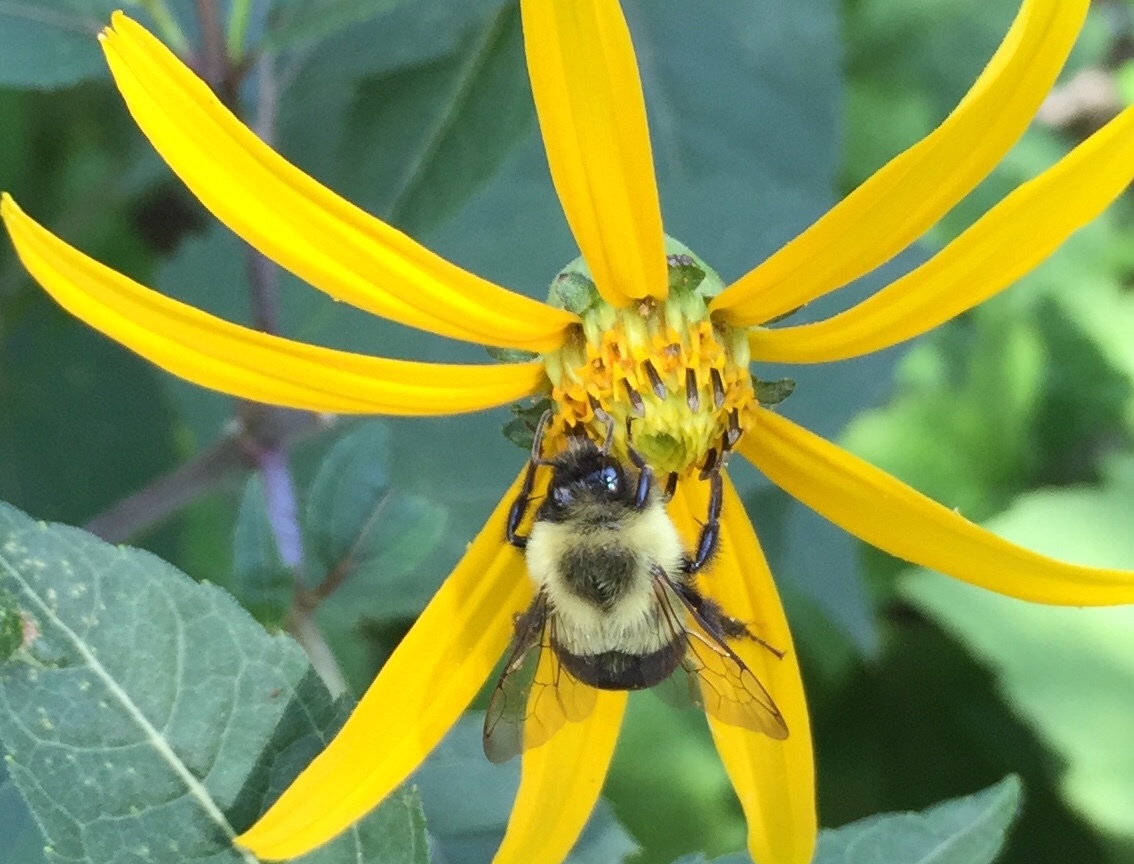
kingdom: Animalia
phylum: Arthropoda
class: Insecta
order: Hymenoptera
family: Apidae
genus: Bombus
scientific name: Bombus impatiens
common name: Common eastern bumble bee
